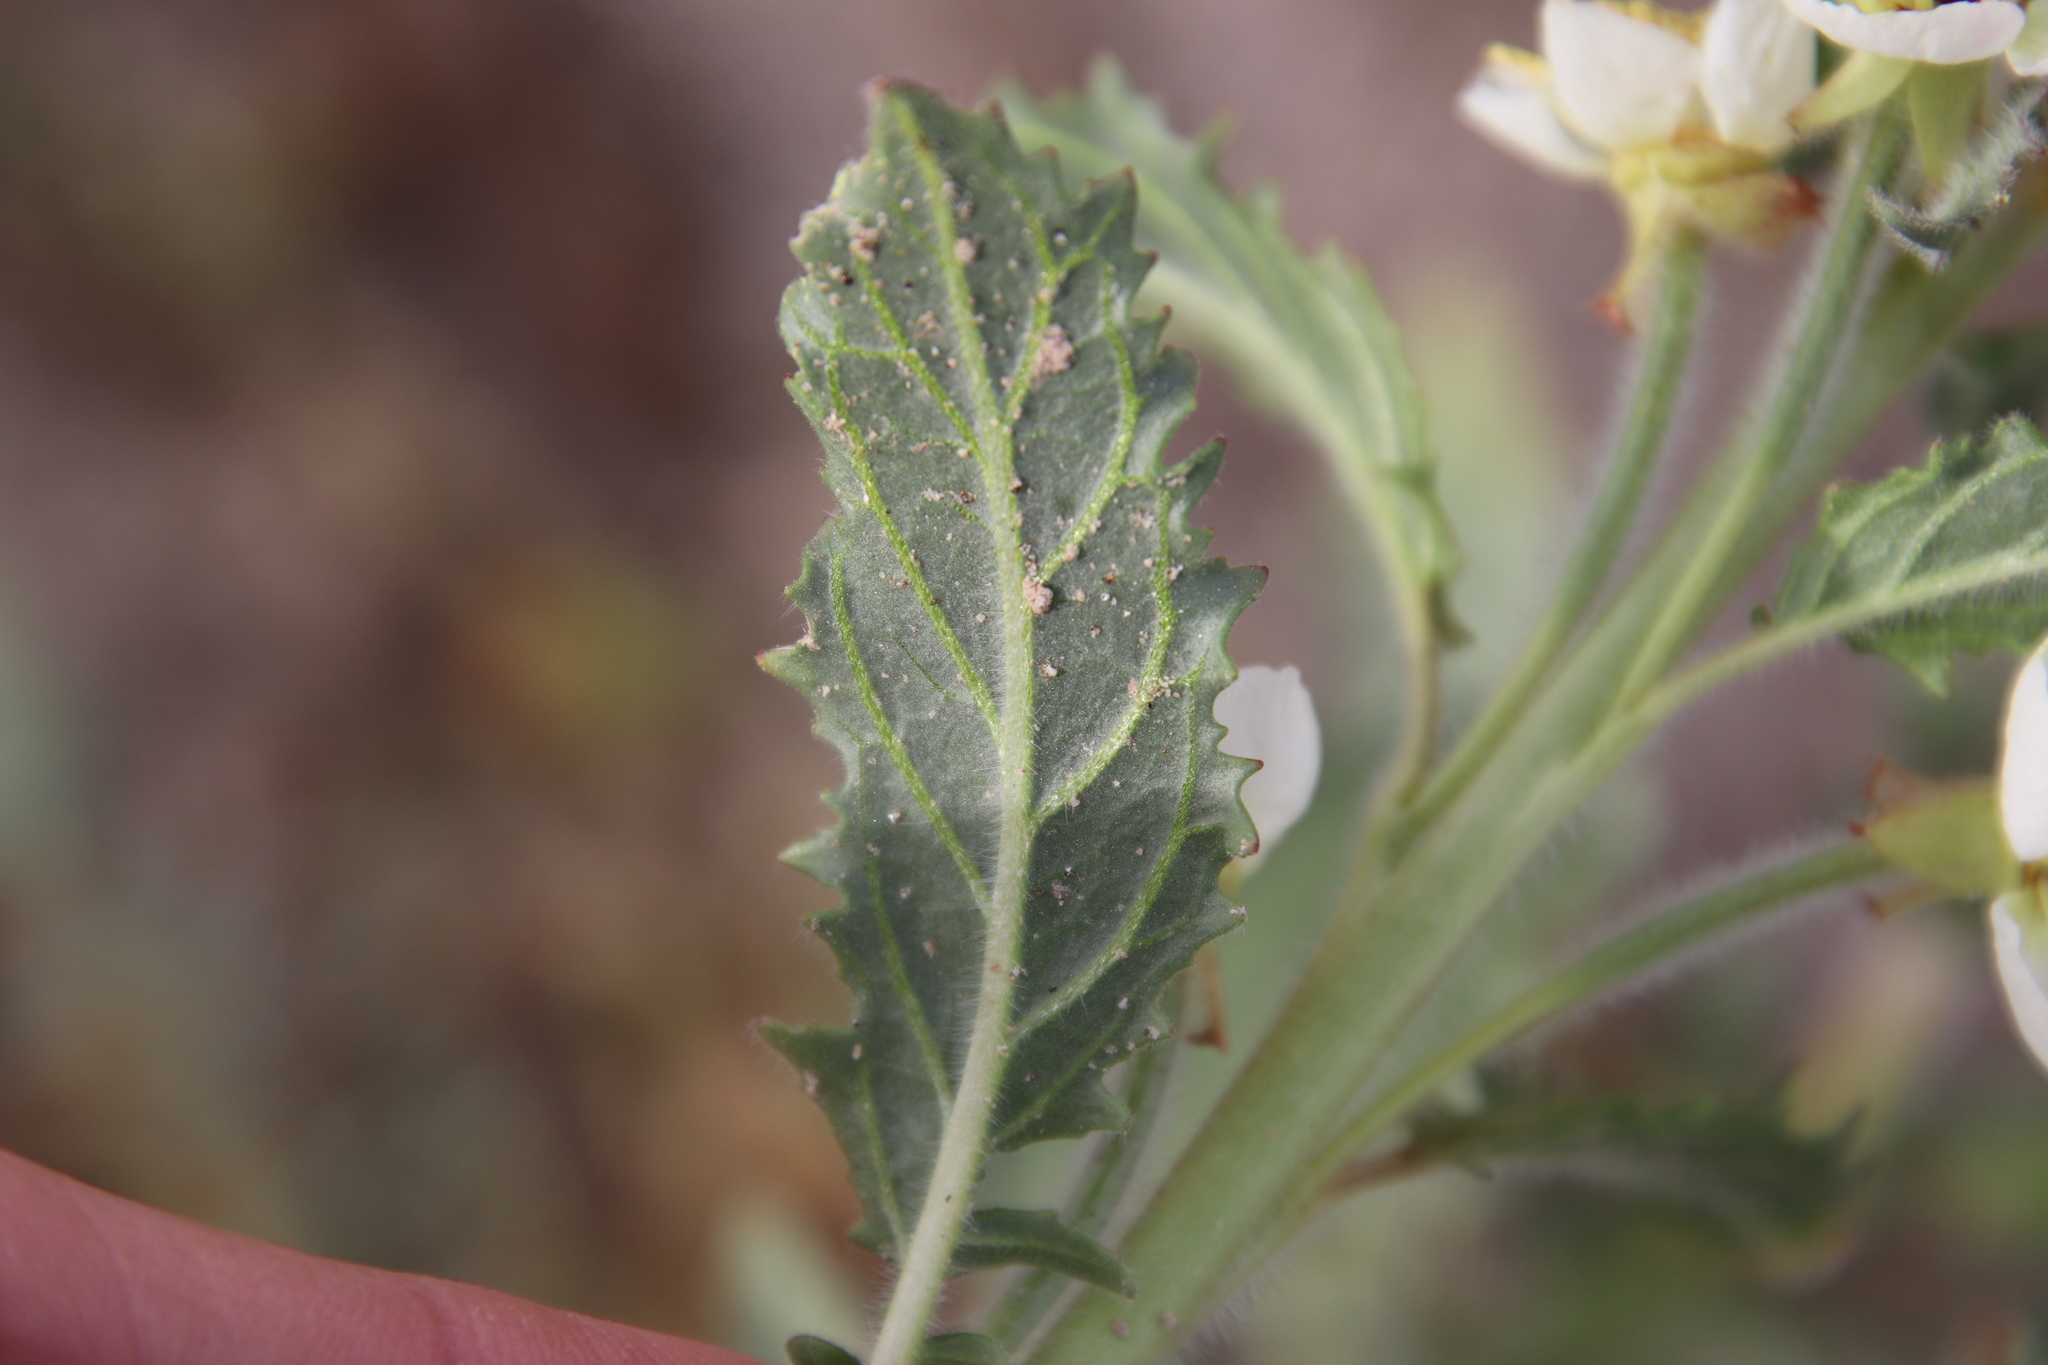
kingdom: Plantae
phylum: Tracheophyta
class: Magnoliopsida
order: Myrtales
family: Onagraceae
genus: Chylismia
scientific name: Chylismia claviformis
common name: Browneyes
